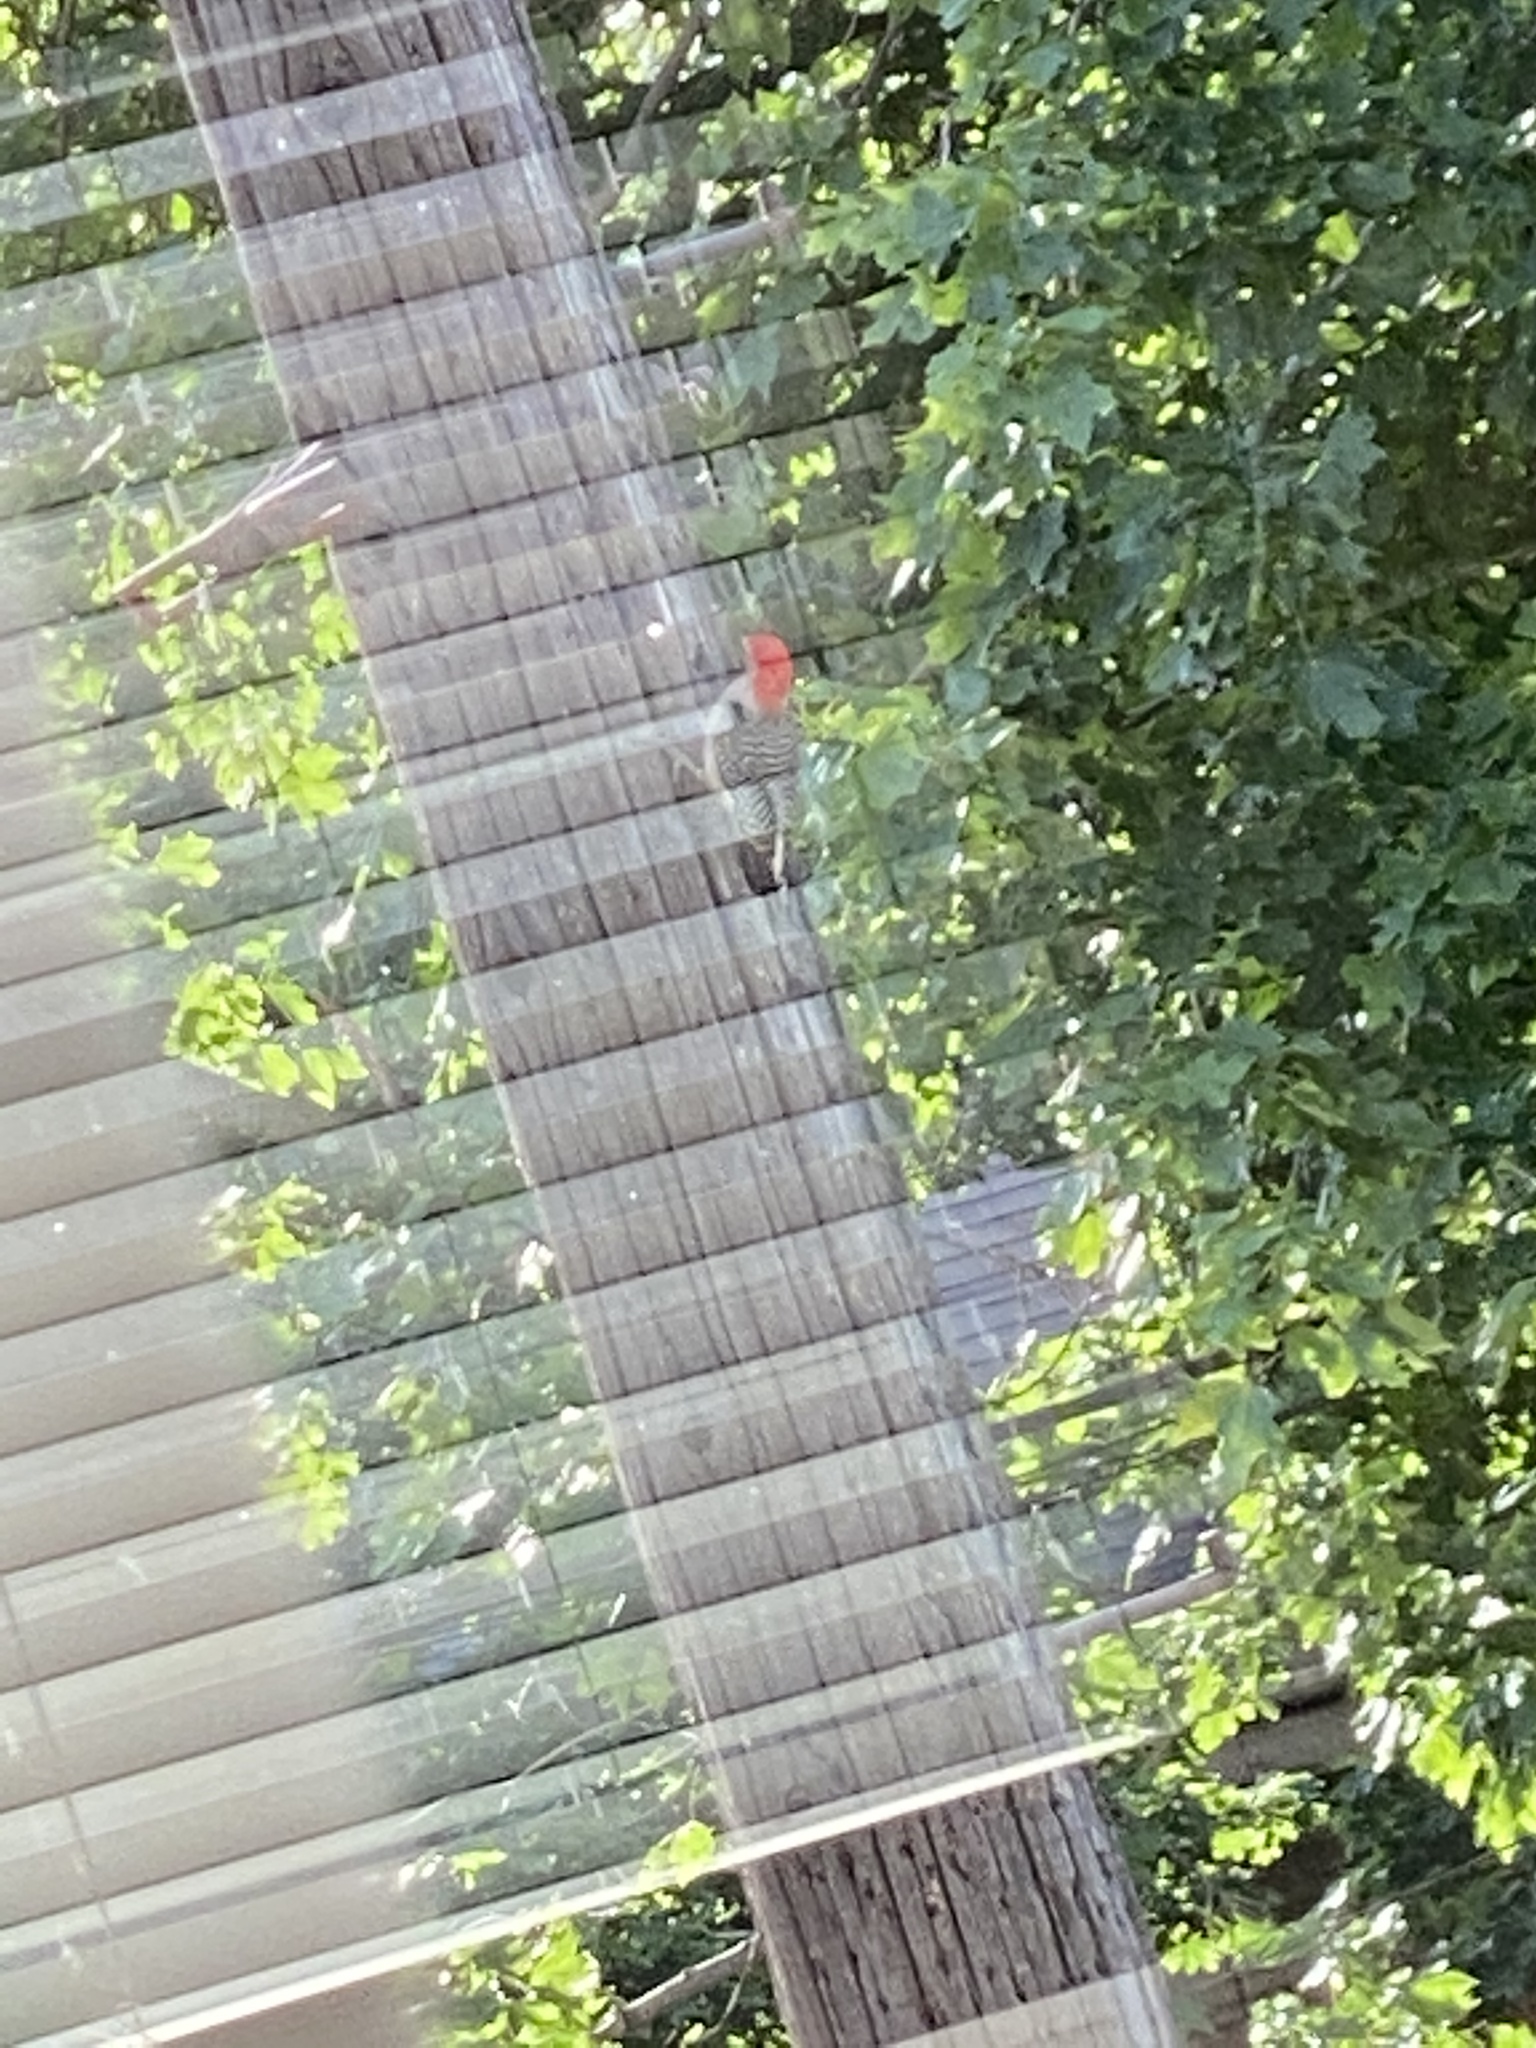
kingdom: Animalia
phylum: Chordata
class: Aves
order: Piciformes
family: Picidae
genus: Melanerpes
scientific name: Melanerpes carolinus
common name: Red-bellied woodpecker
